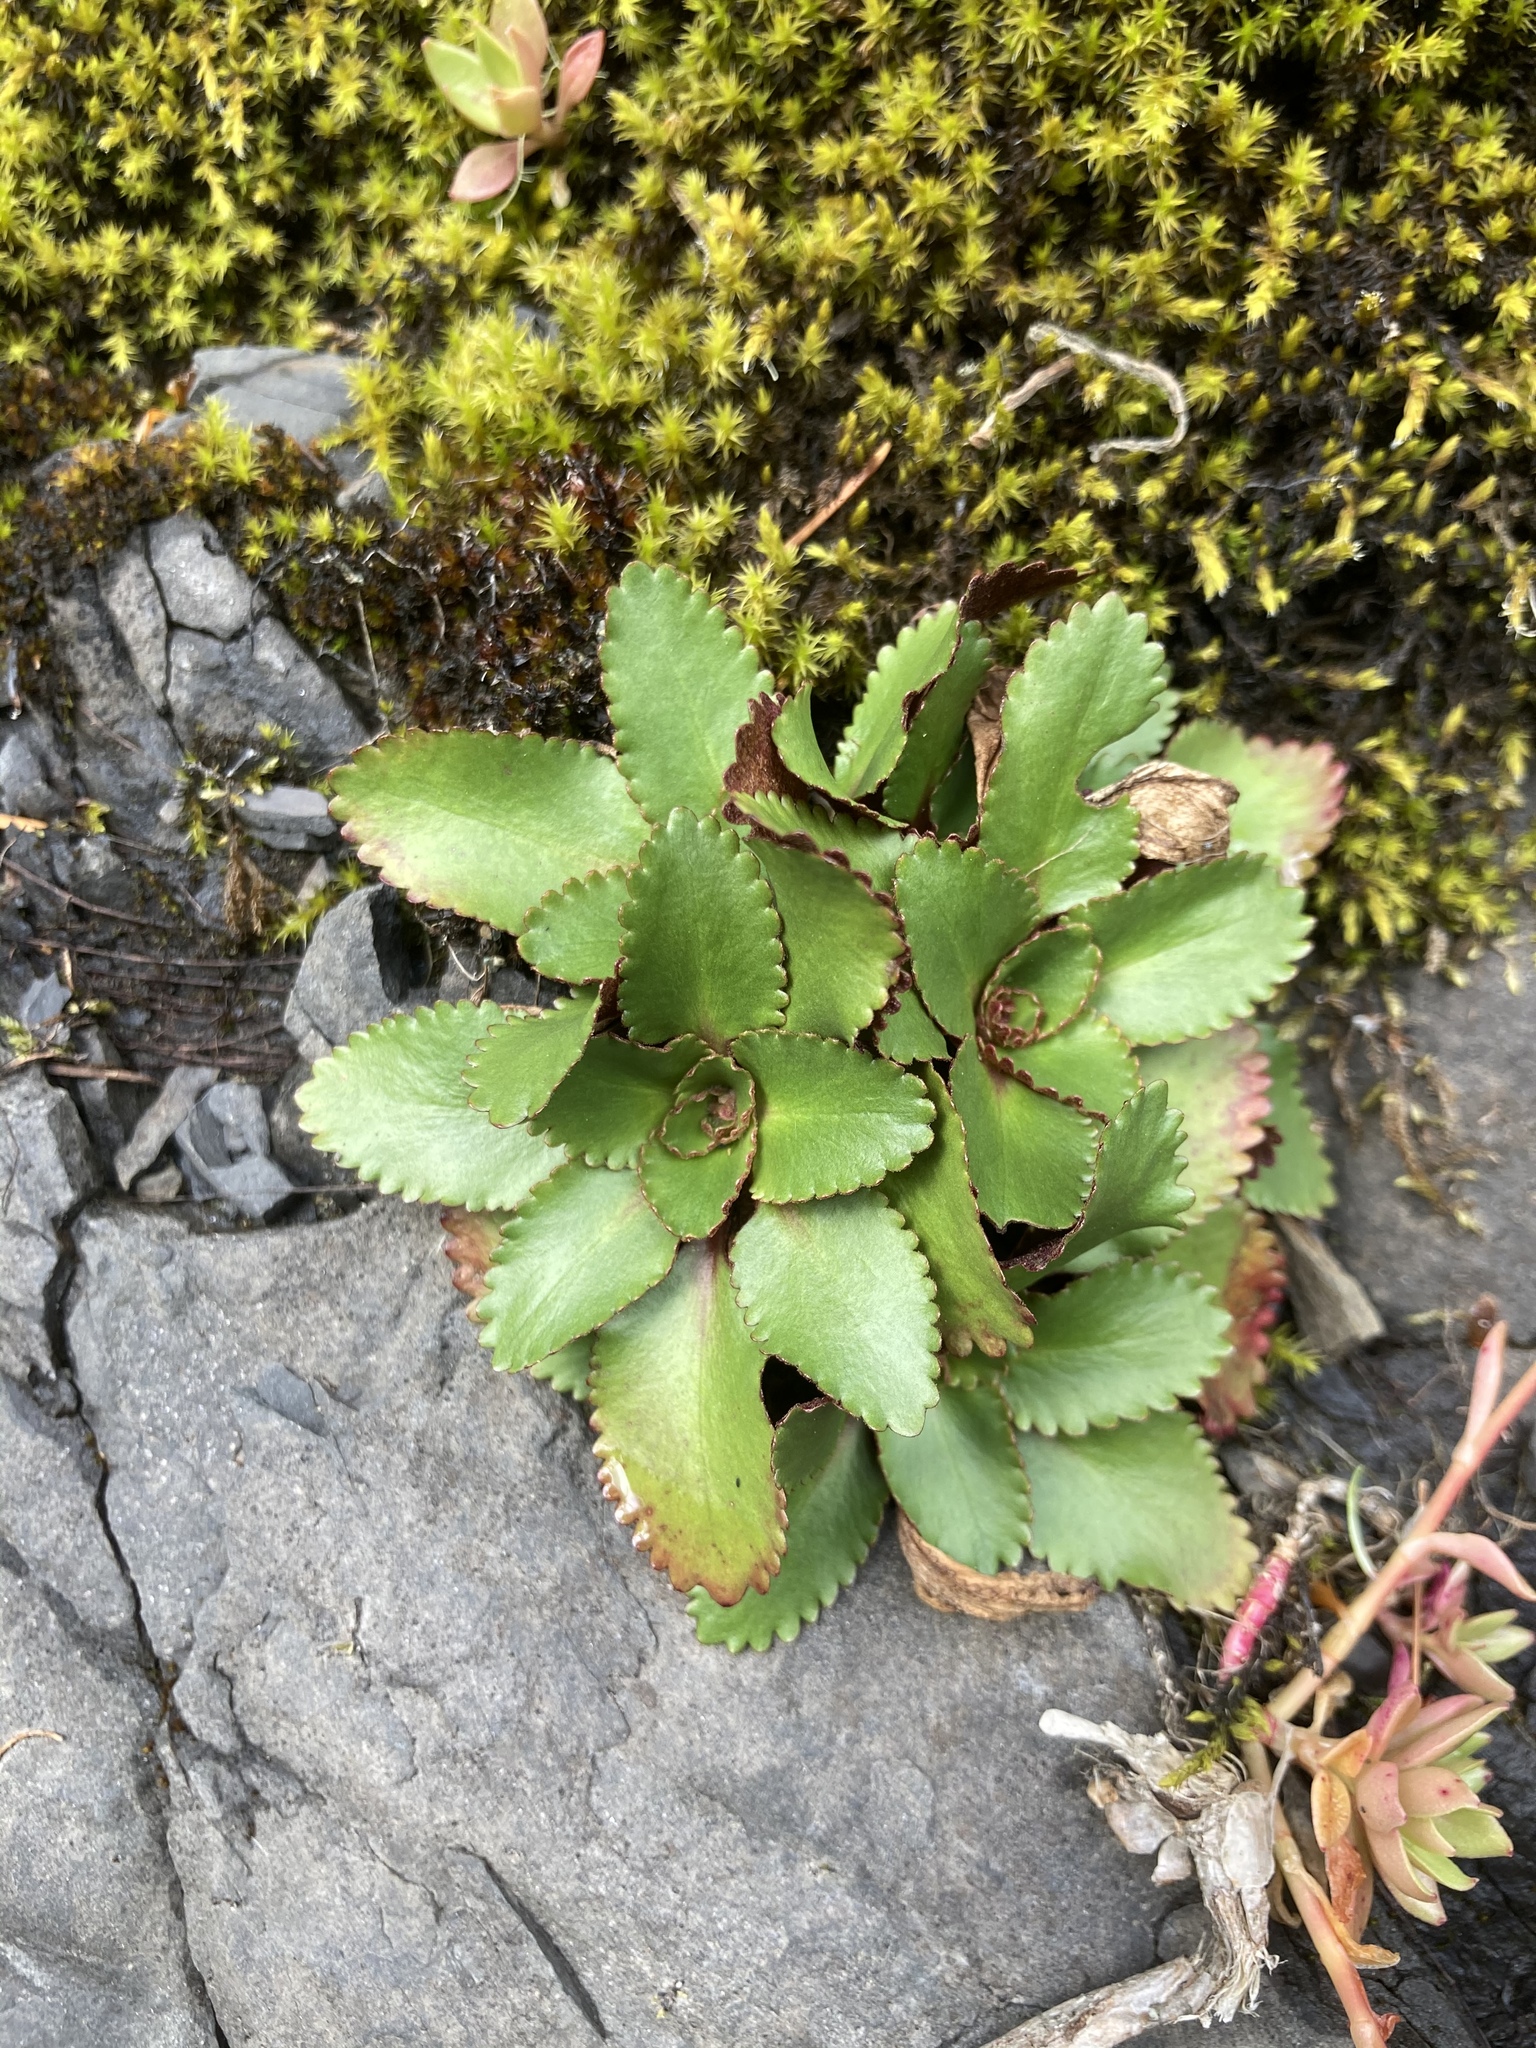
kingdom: Plantae
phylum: Tracheophyta
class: Magnoliopsida
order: Saxifragales
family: Saxifragaceae
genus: Micranthes
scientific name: Micranthes rufidula
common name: Rustyhair saxifrage
